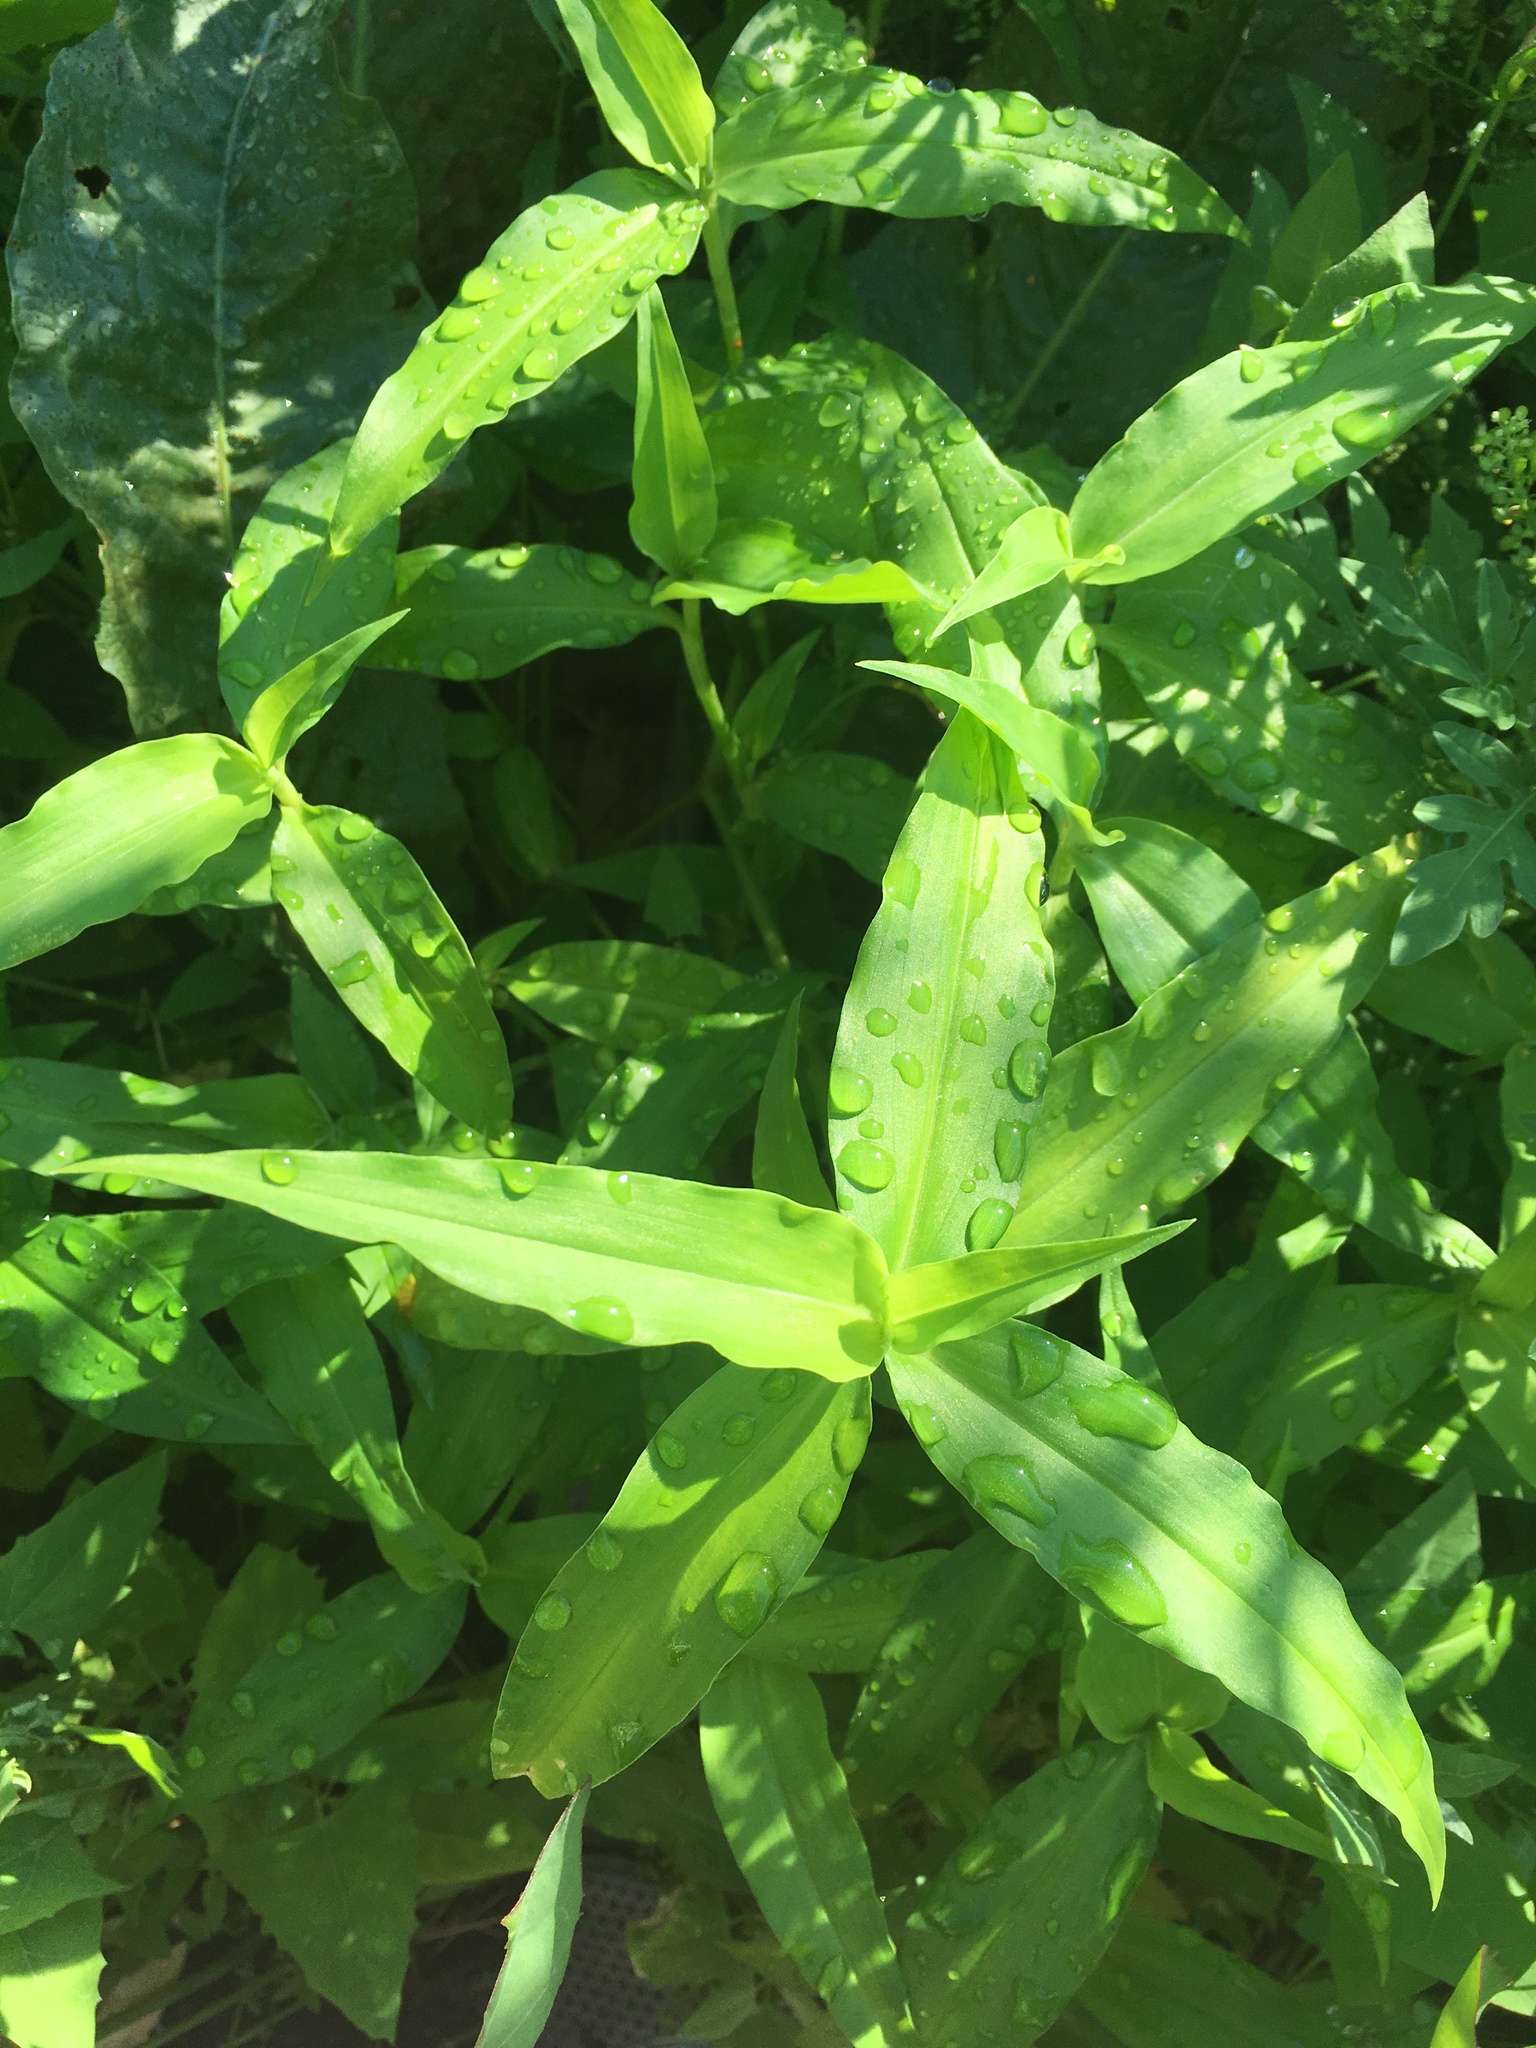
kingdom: Plantae
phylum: Tracheophyta
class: Liliopsida
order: Commelinales
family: Commelinaceae
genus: Commelina
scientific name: Commelina communis
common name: Asiatic dayflower
